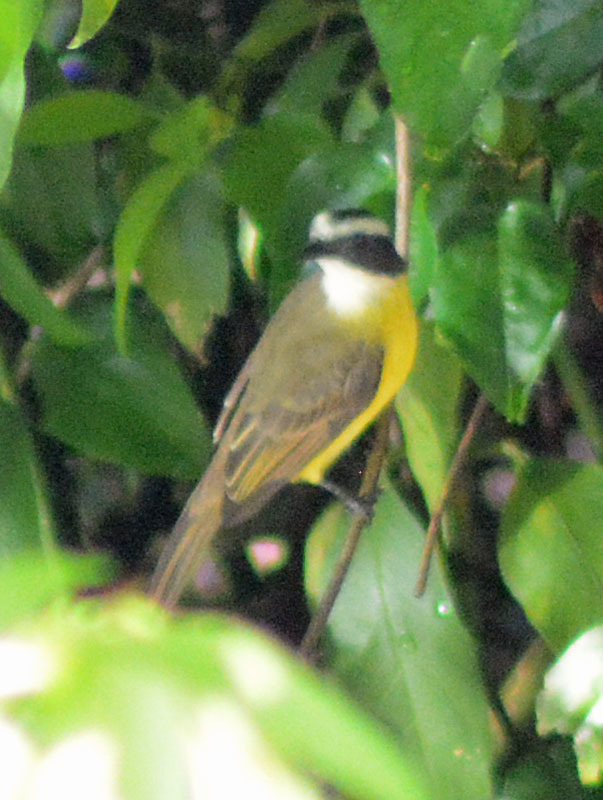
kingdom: Animalia
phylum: Chordata
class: Aves
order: Passeriformes
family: Tyrannidae
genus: Myiozetetes
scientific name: Myiozetetes similis
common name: Social flycatcher
